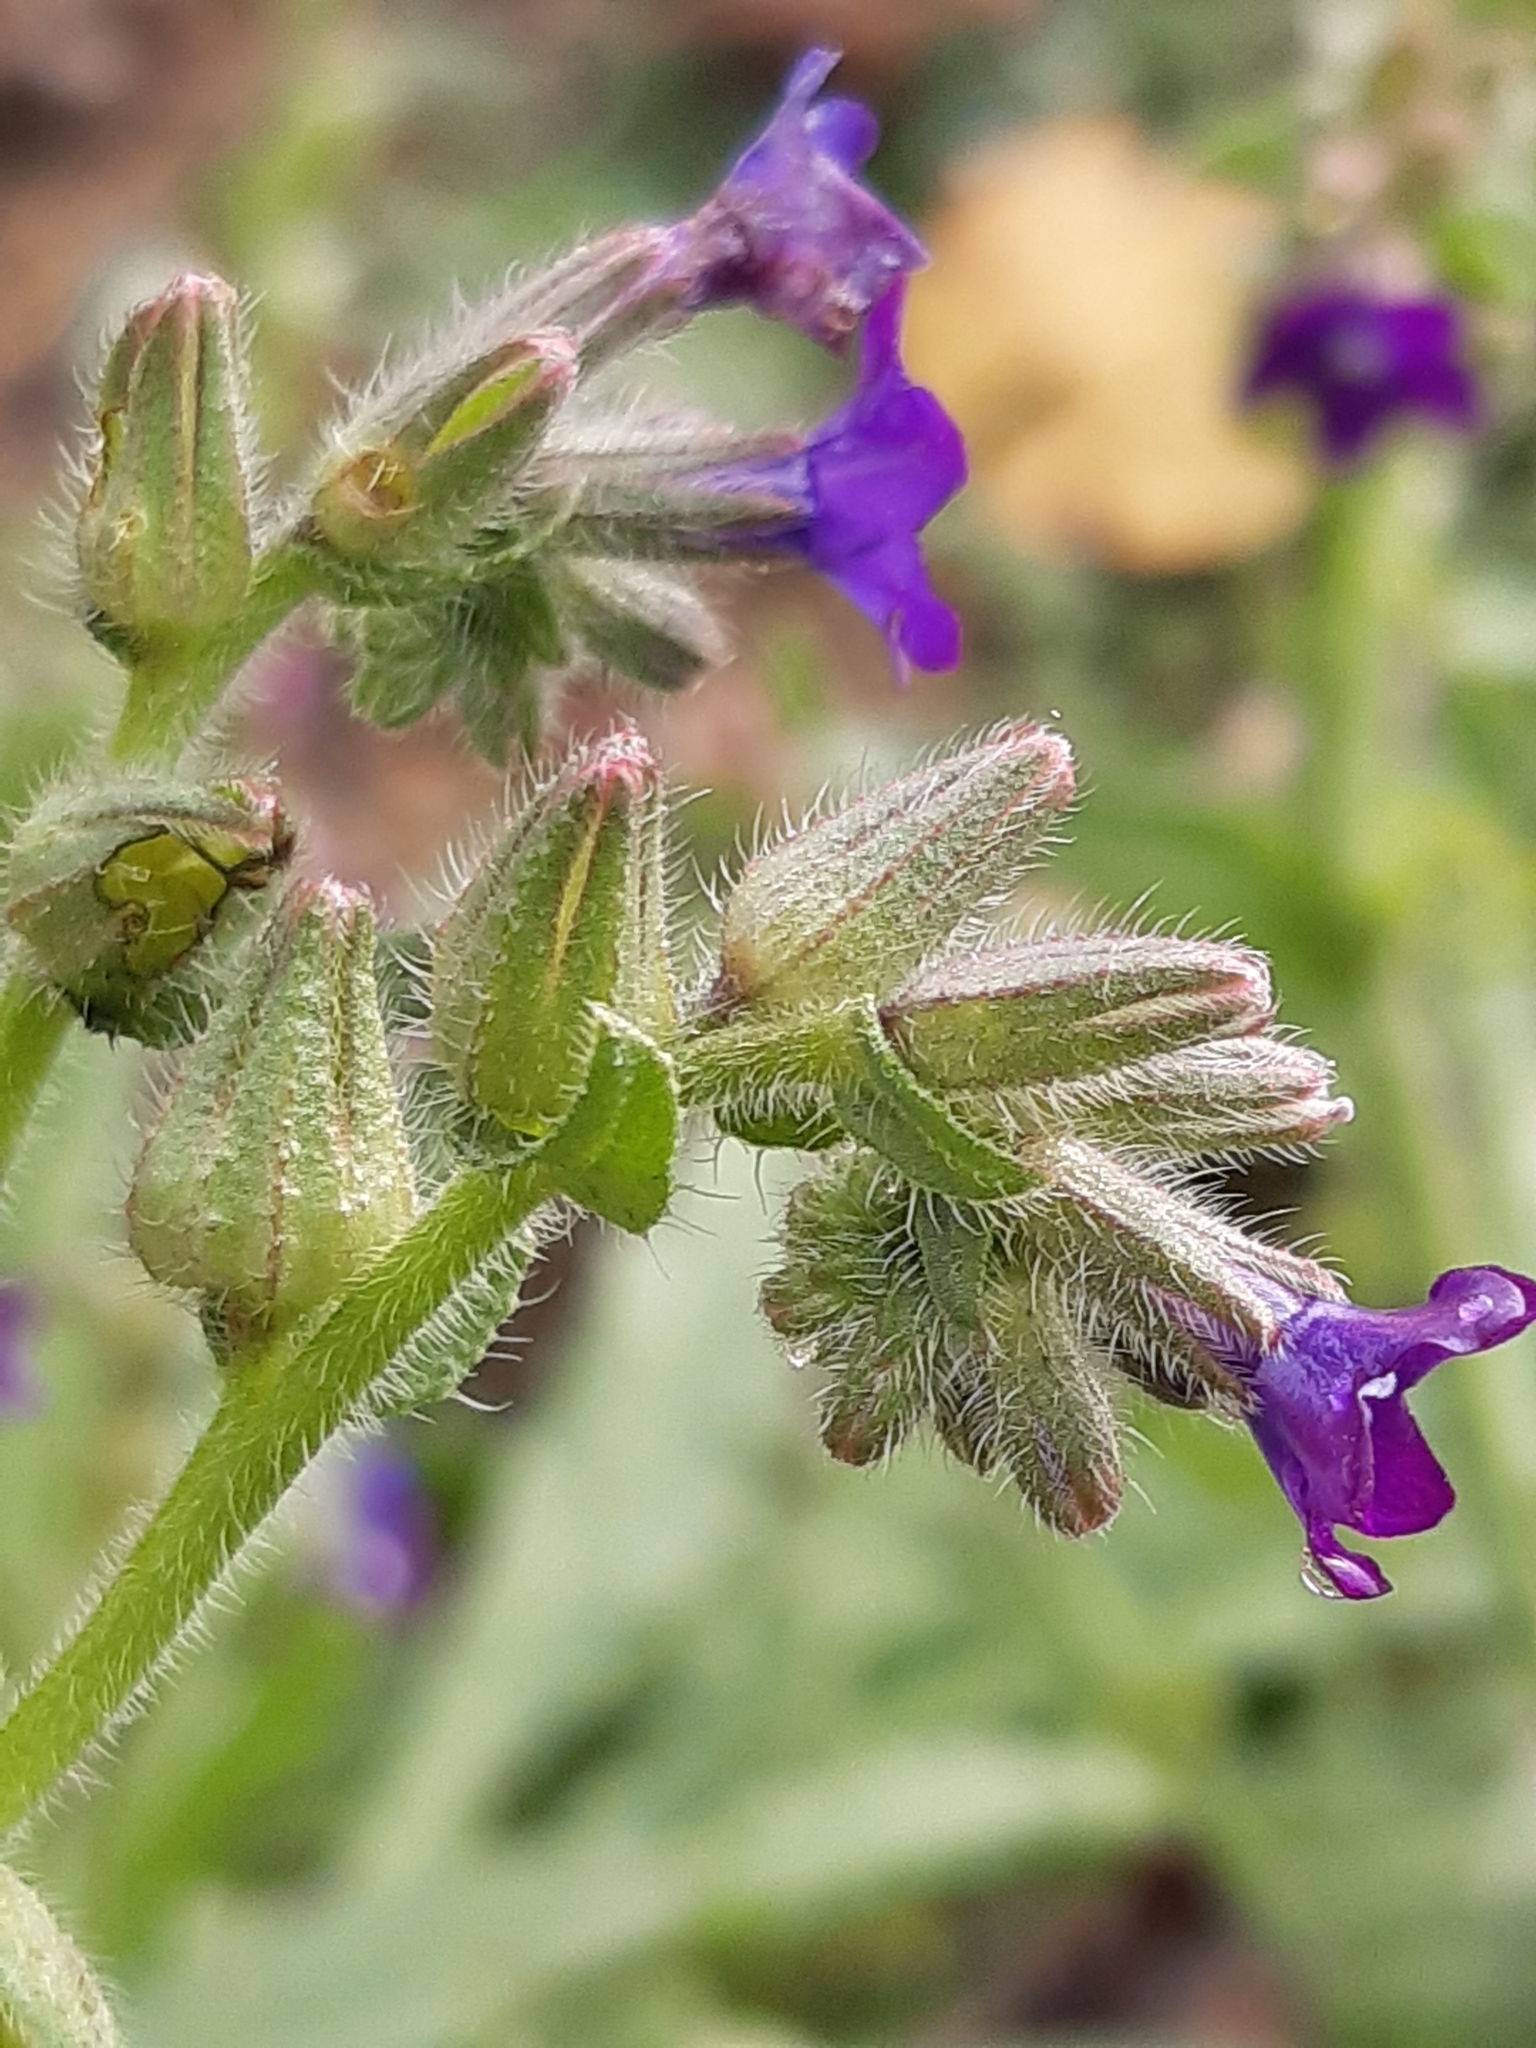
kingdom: Plantae
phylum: Tracheophyta
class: Magnoliopsida
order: Boraginales
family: Boraginaceae
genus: Anchusa
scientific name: Anchusa officinalis
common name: Alkanet
